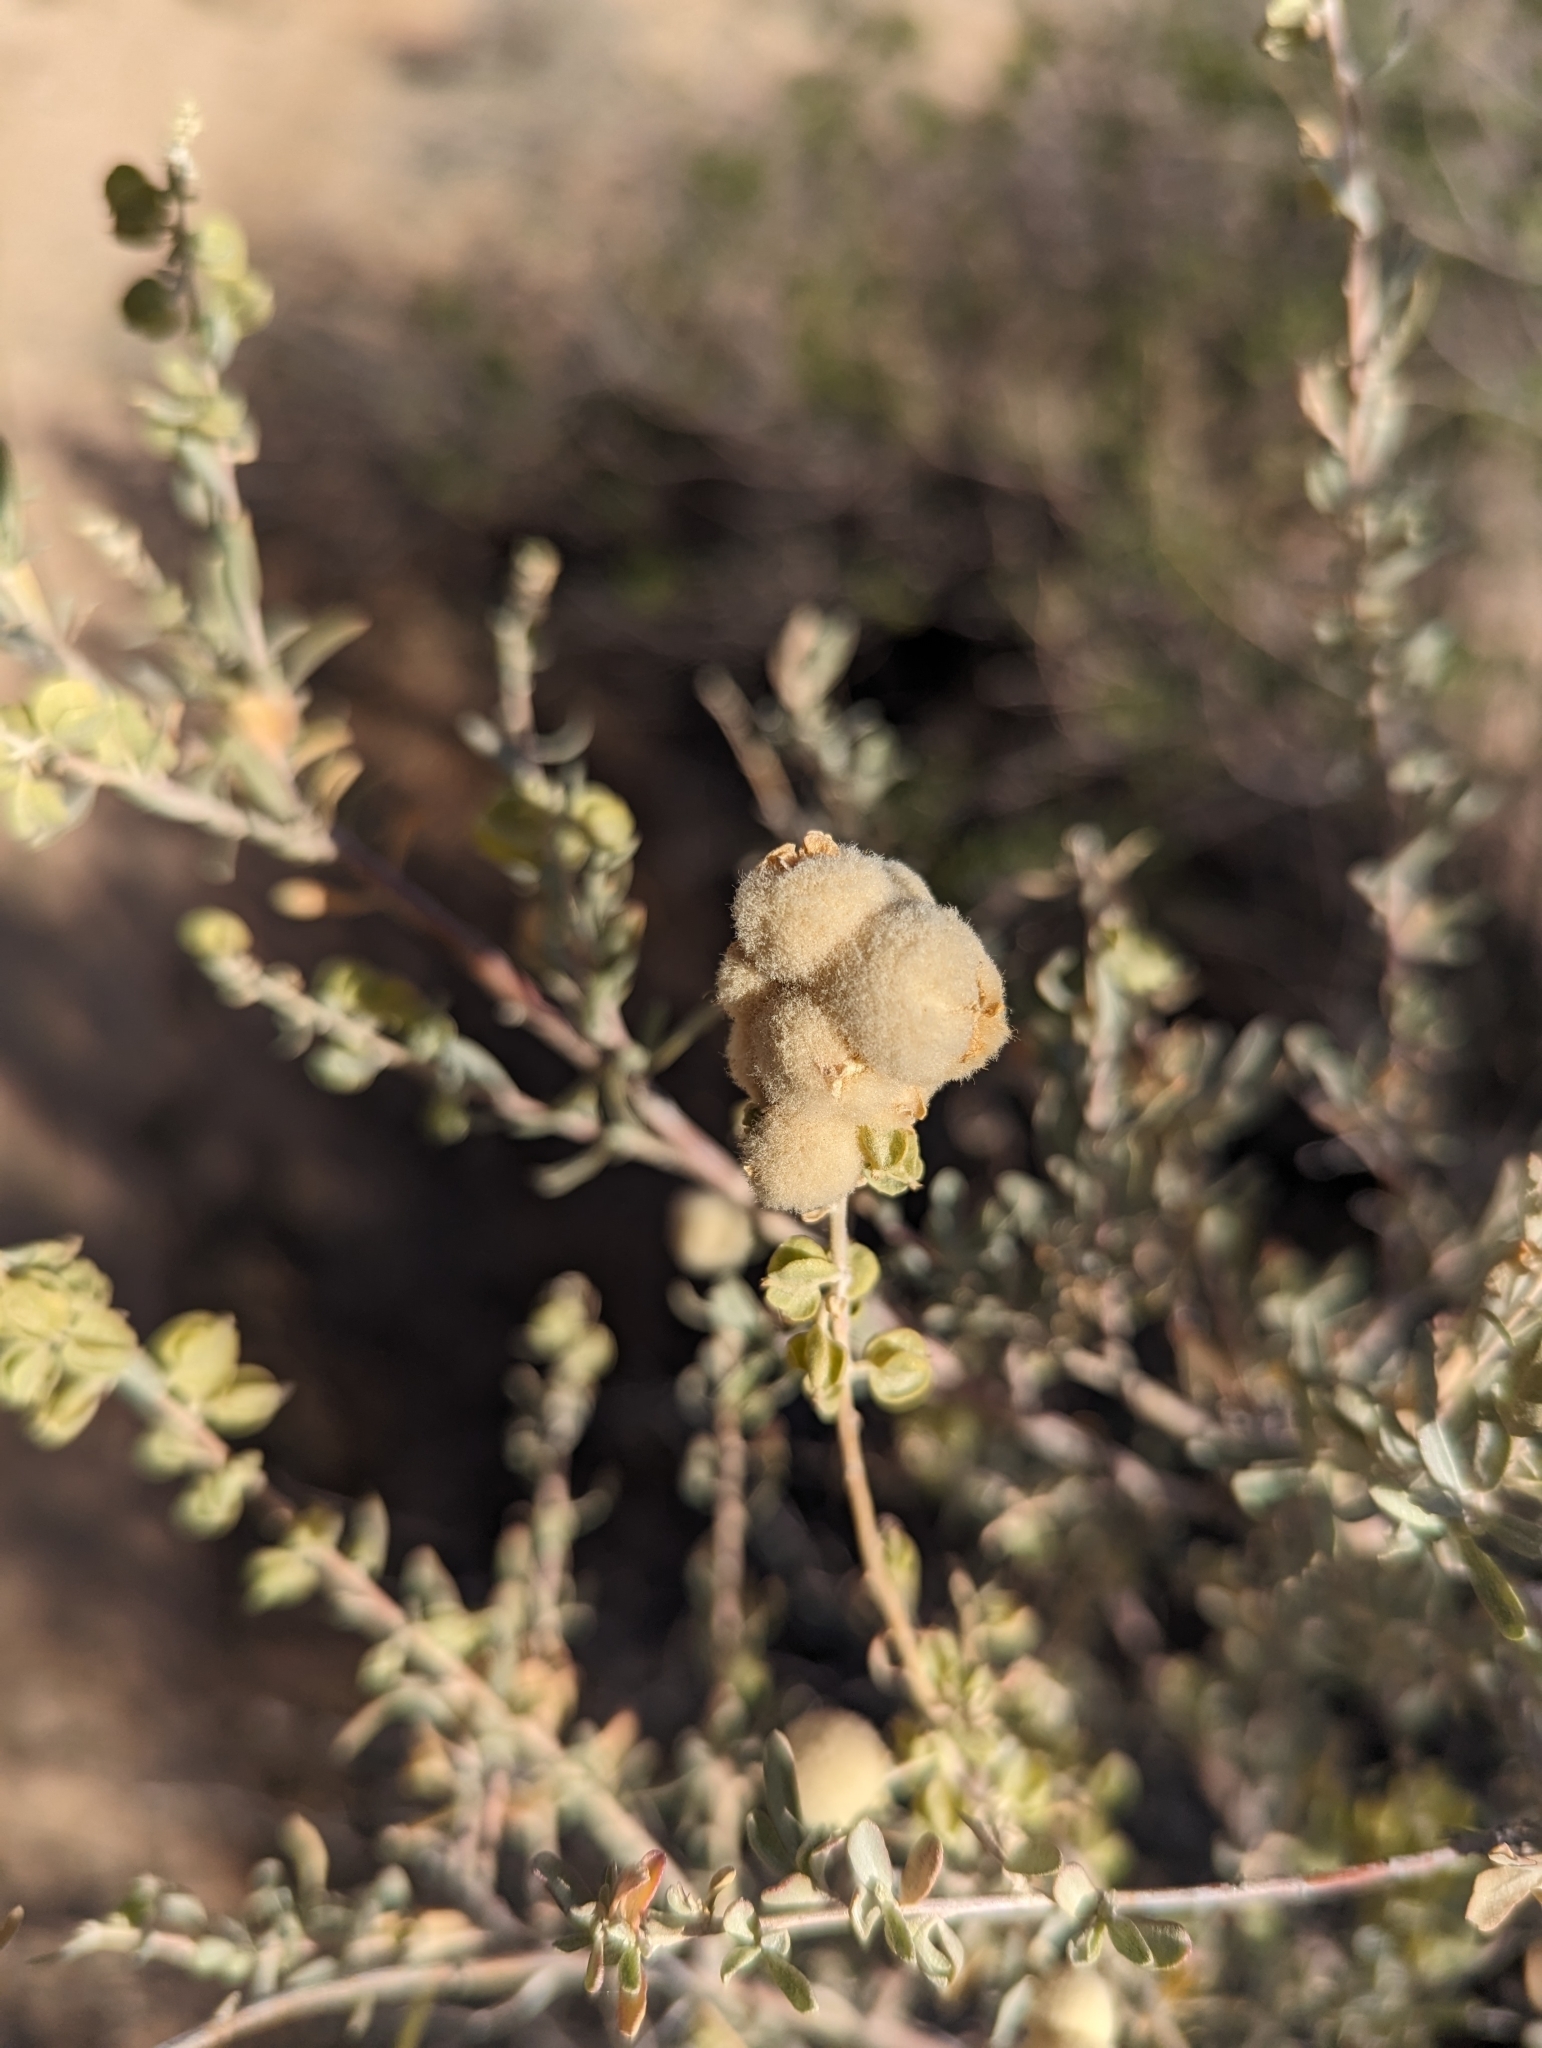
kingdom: Animalia
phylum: Arthropoda
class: Insecta
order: Diptera
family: Cecidomyiidae
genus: Asphondylia
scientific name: Asphondylia neomexicana
